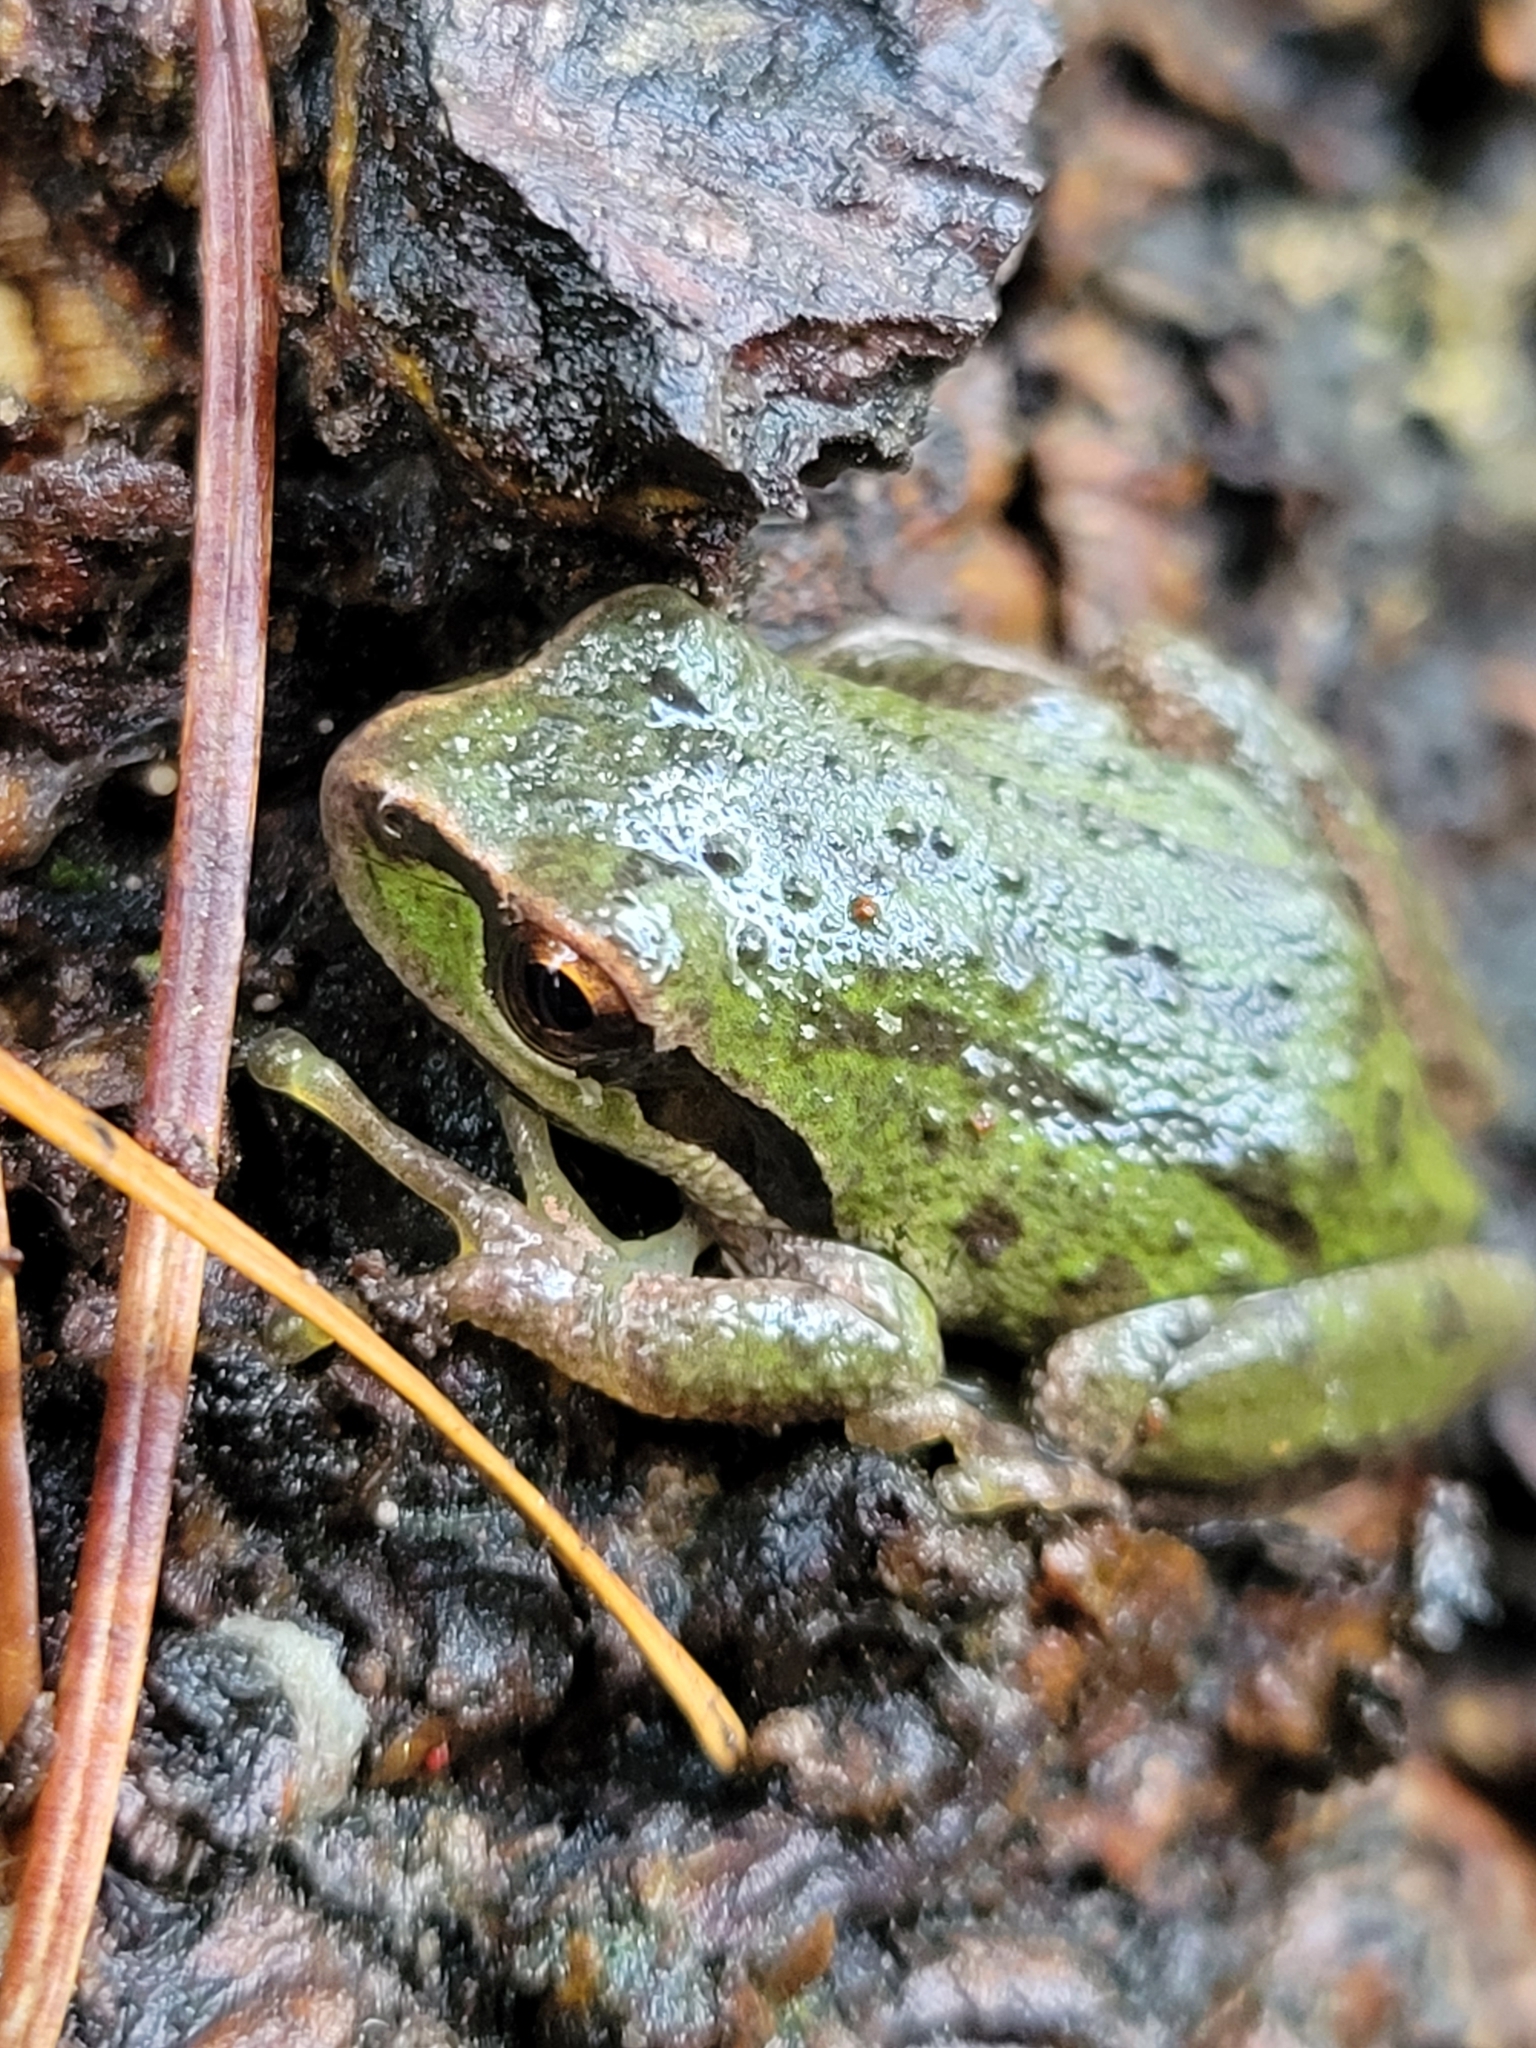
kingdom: Animalia
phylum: Chordata
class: Amphibia
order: Anura
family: Hylidae
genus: Pseudacris
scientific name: Pseudacris regilla
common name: Pacific chorus frog
